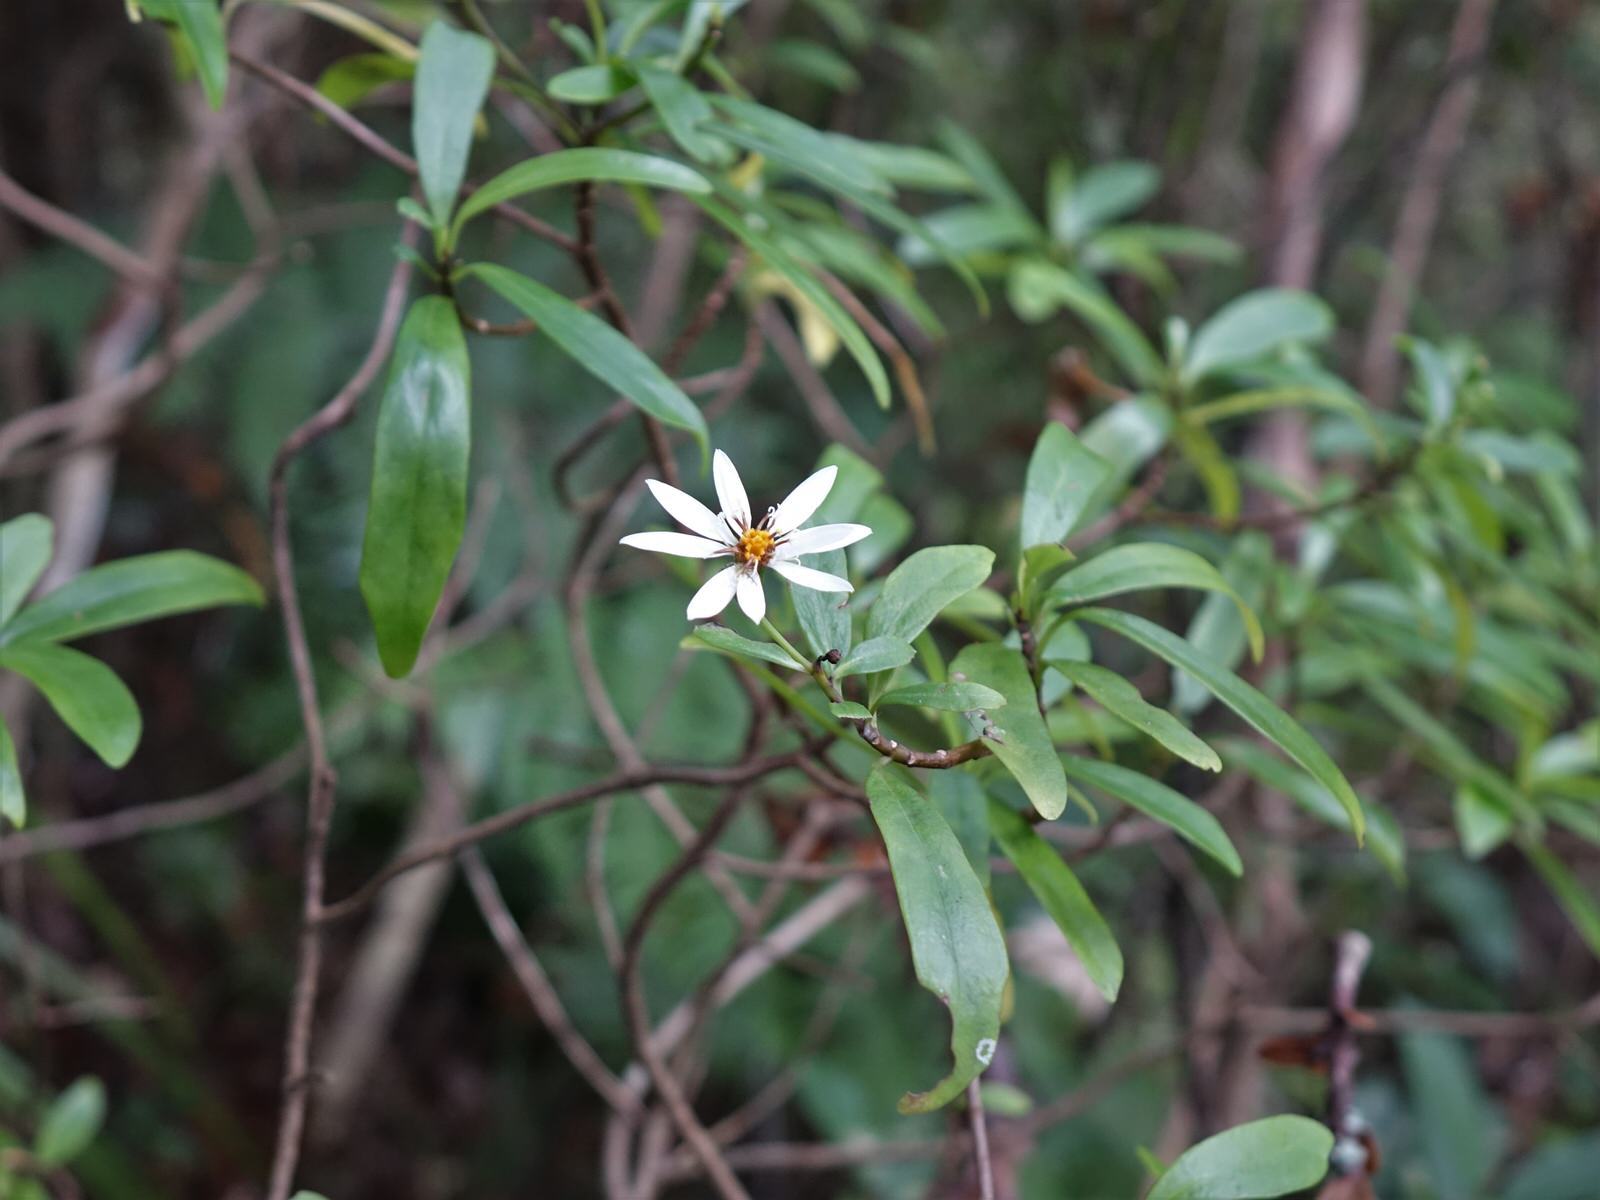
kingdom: Plantae
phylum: Tracheophyta
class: Magnoliopsida
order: Asterales
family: Asteraceae
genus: Brachyglottis
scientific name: Brachyglottis kirkii
